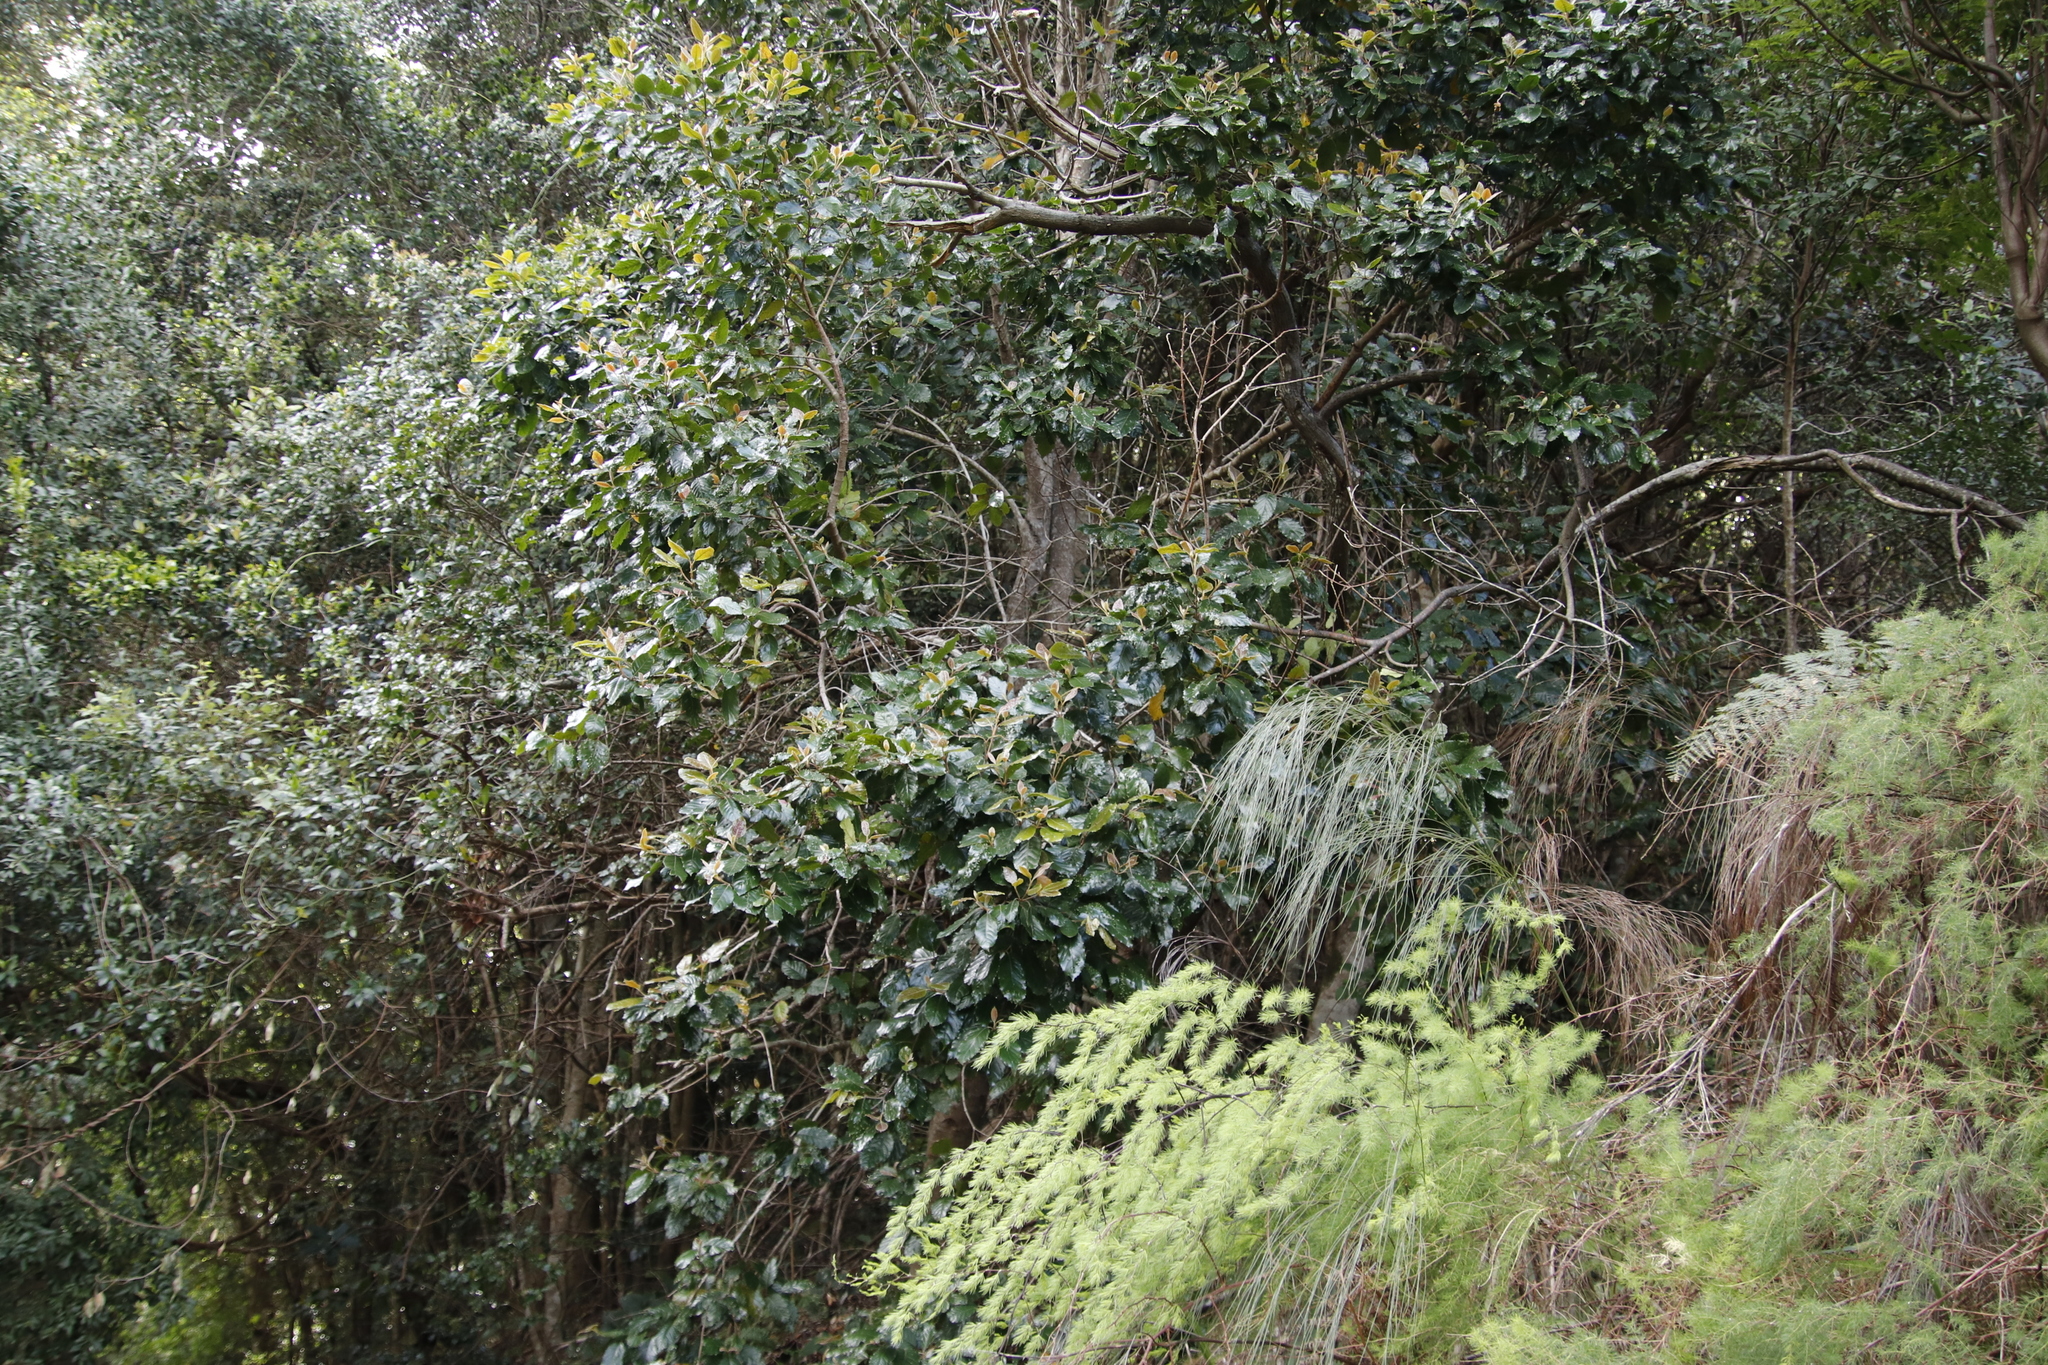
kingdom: Plantae
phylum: Tracheophyta
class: Magnoliopsida
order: Cornales
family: Curtisiaceae
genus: Curtisia
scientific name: Curtisia dentata
